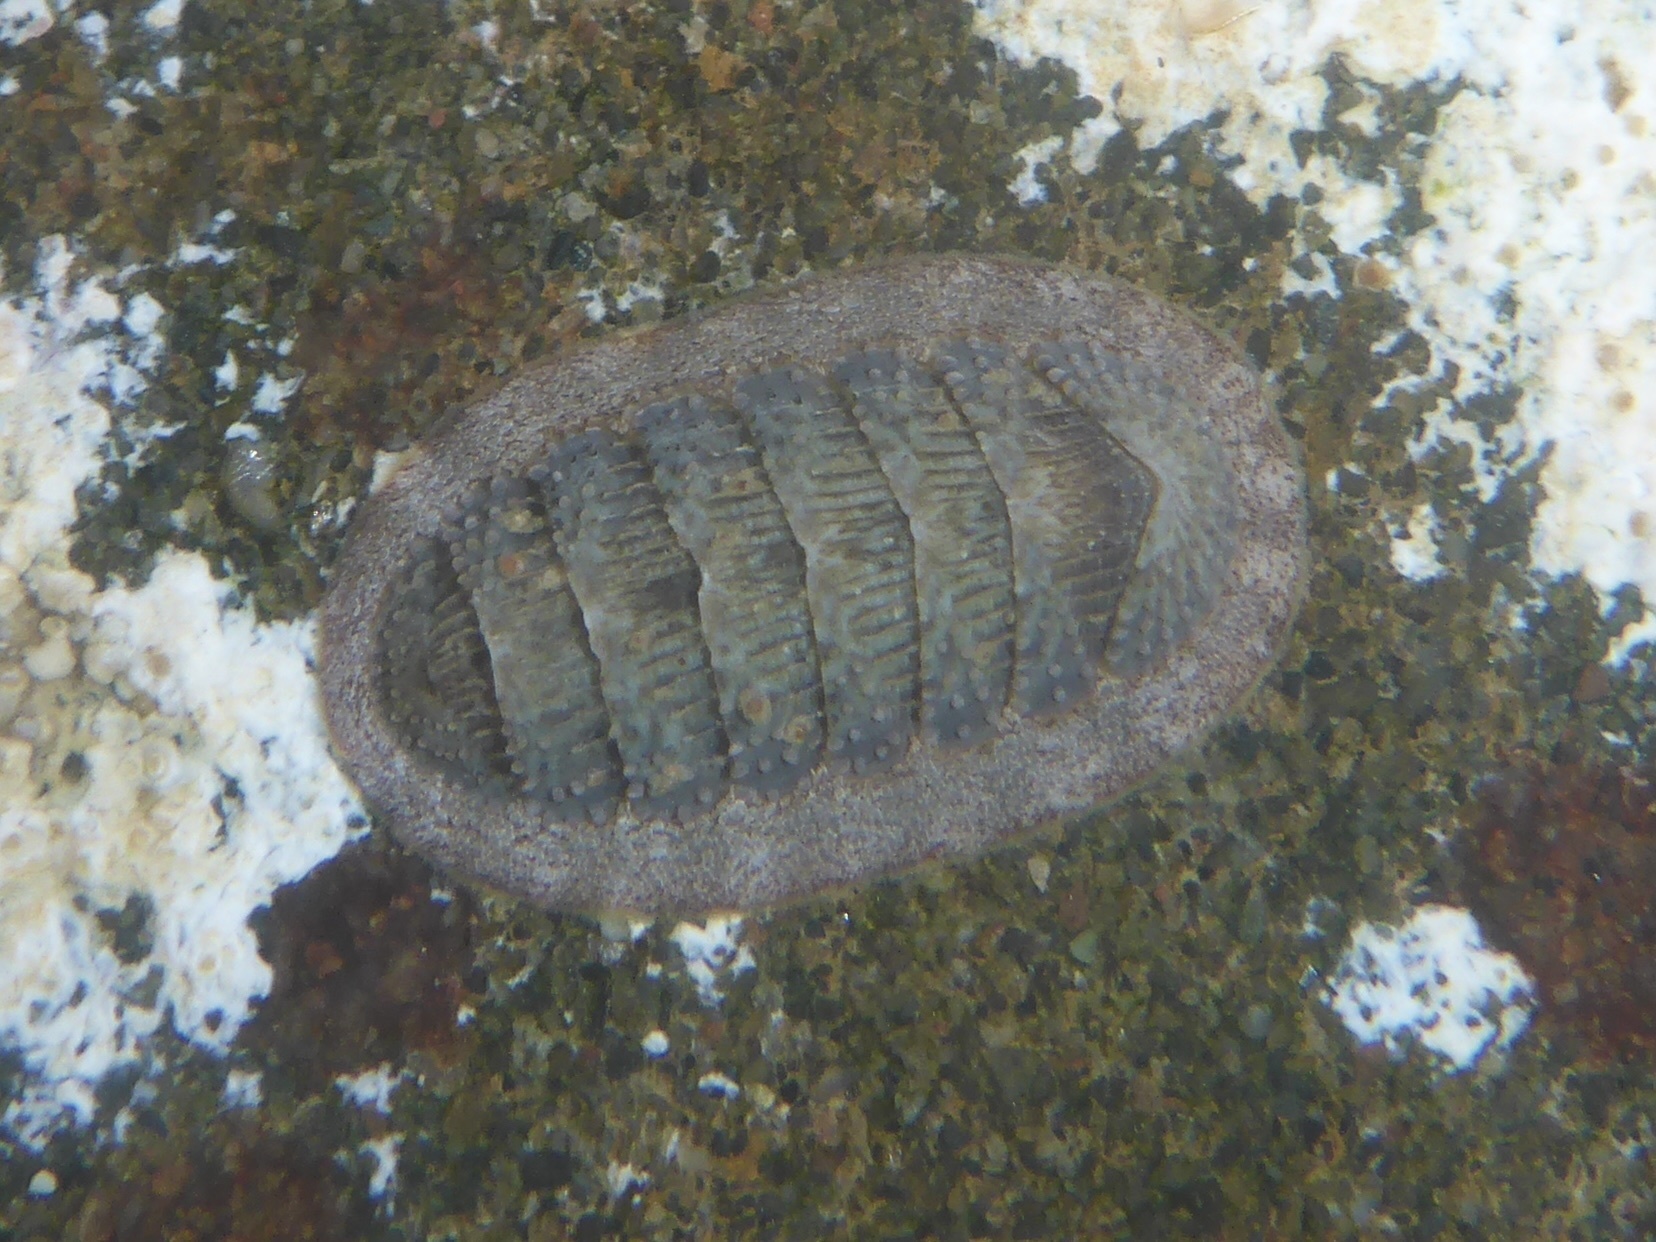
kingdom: Animalia
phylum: Mollusca
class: Polyplacophora
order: Chitonida
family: Ischnochitonidae
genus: Lepidozona
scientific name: Lepidozona cooperi
